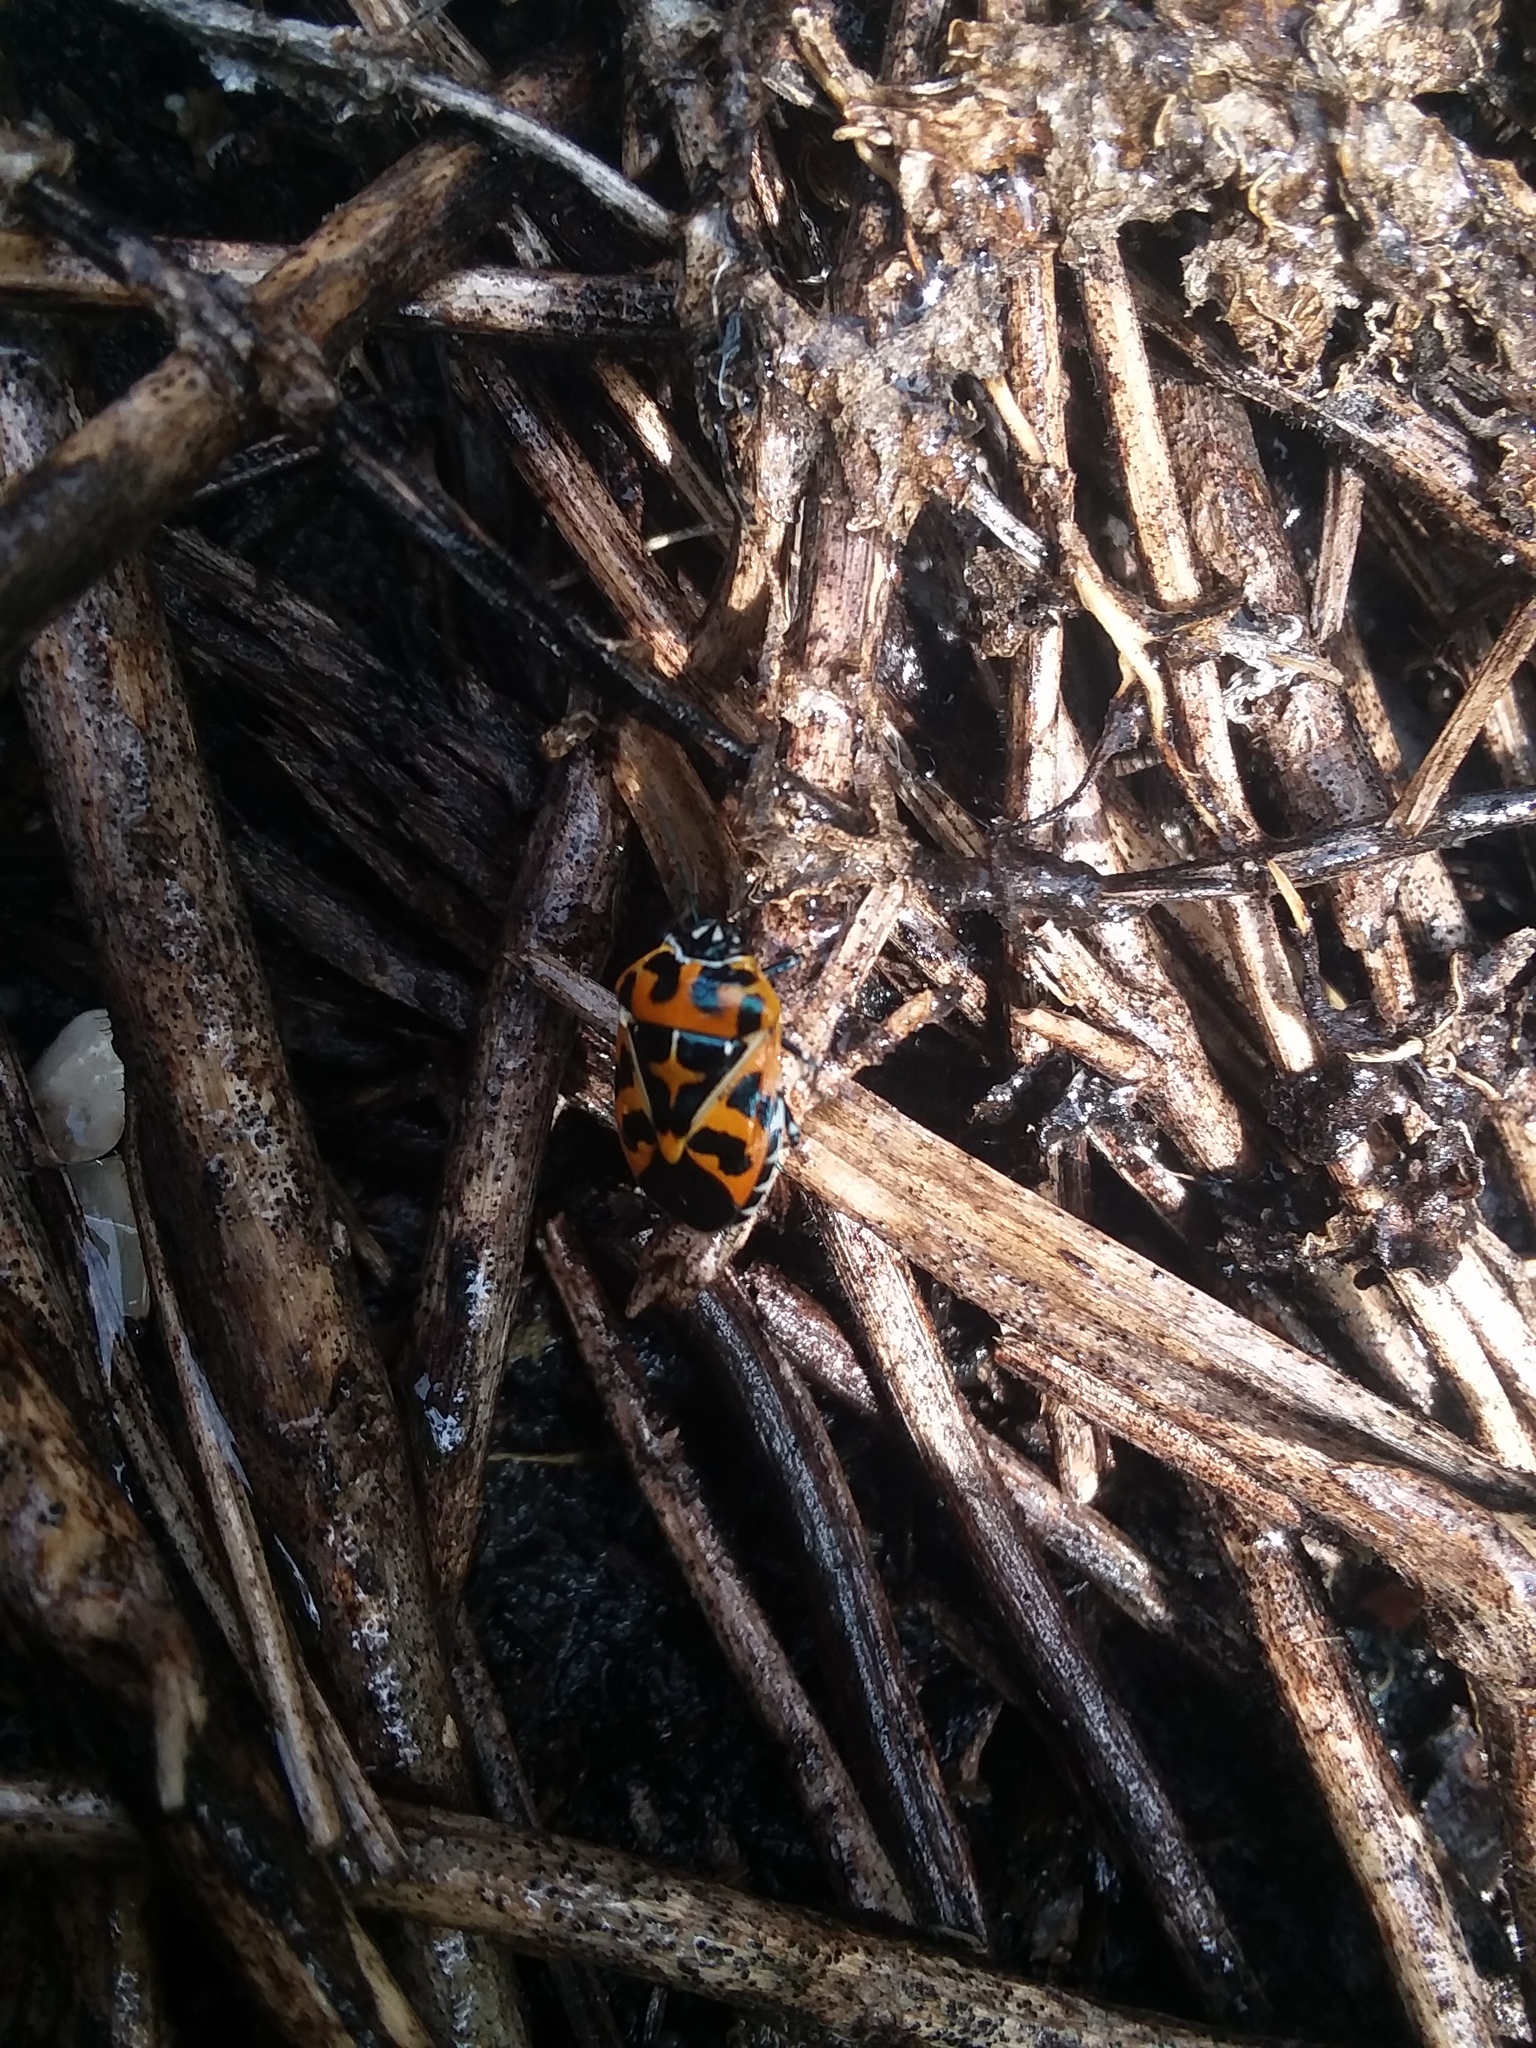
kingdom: Animalia
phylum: Arthropoda
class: Insecta
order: Hemiptera
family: Pentatomidae
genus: Murgantia
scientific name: Murgantia histrionica
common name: Harlequin bug
